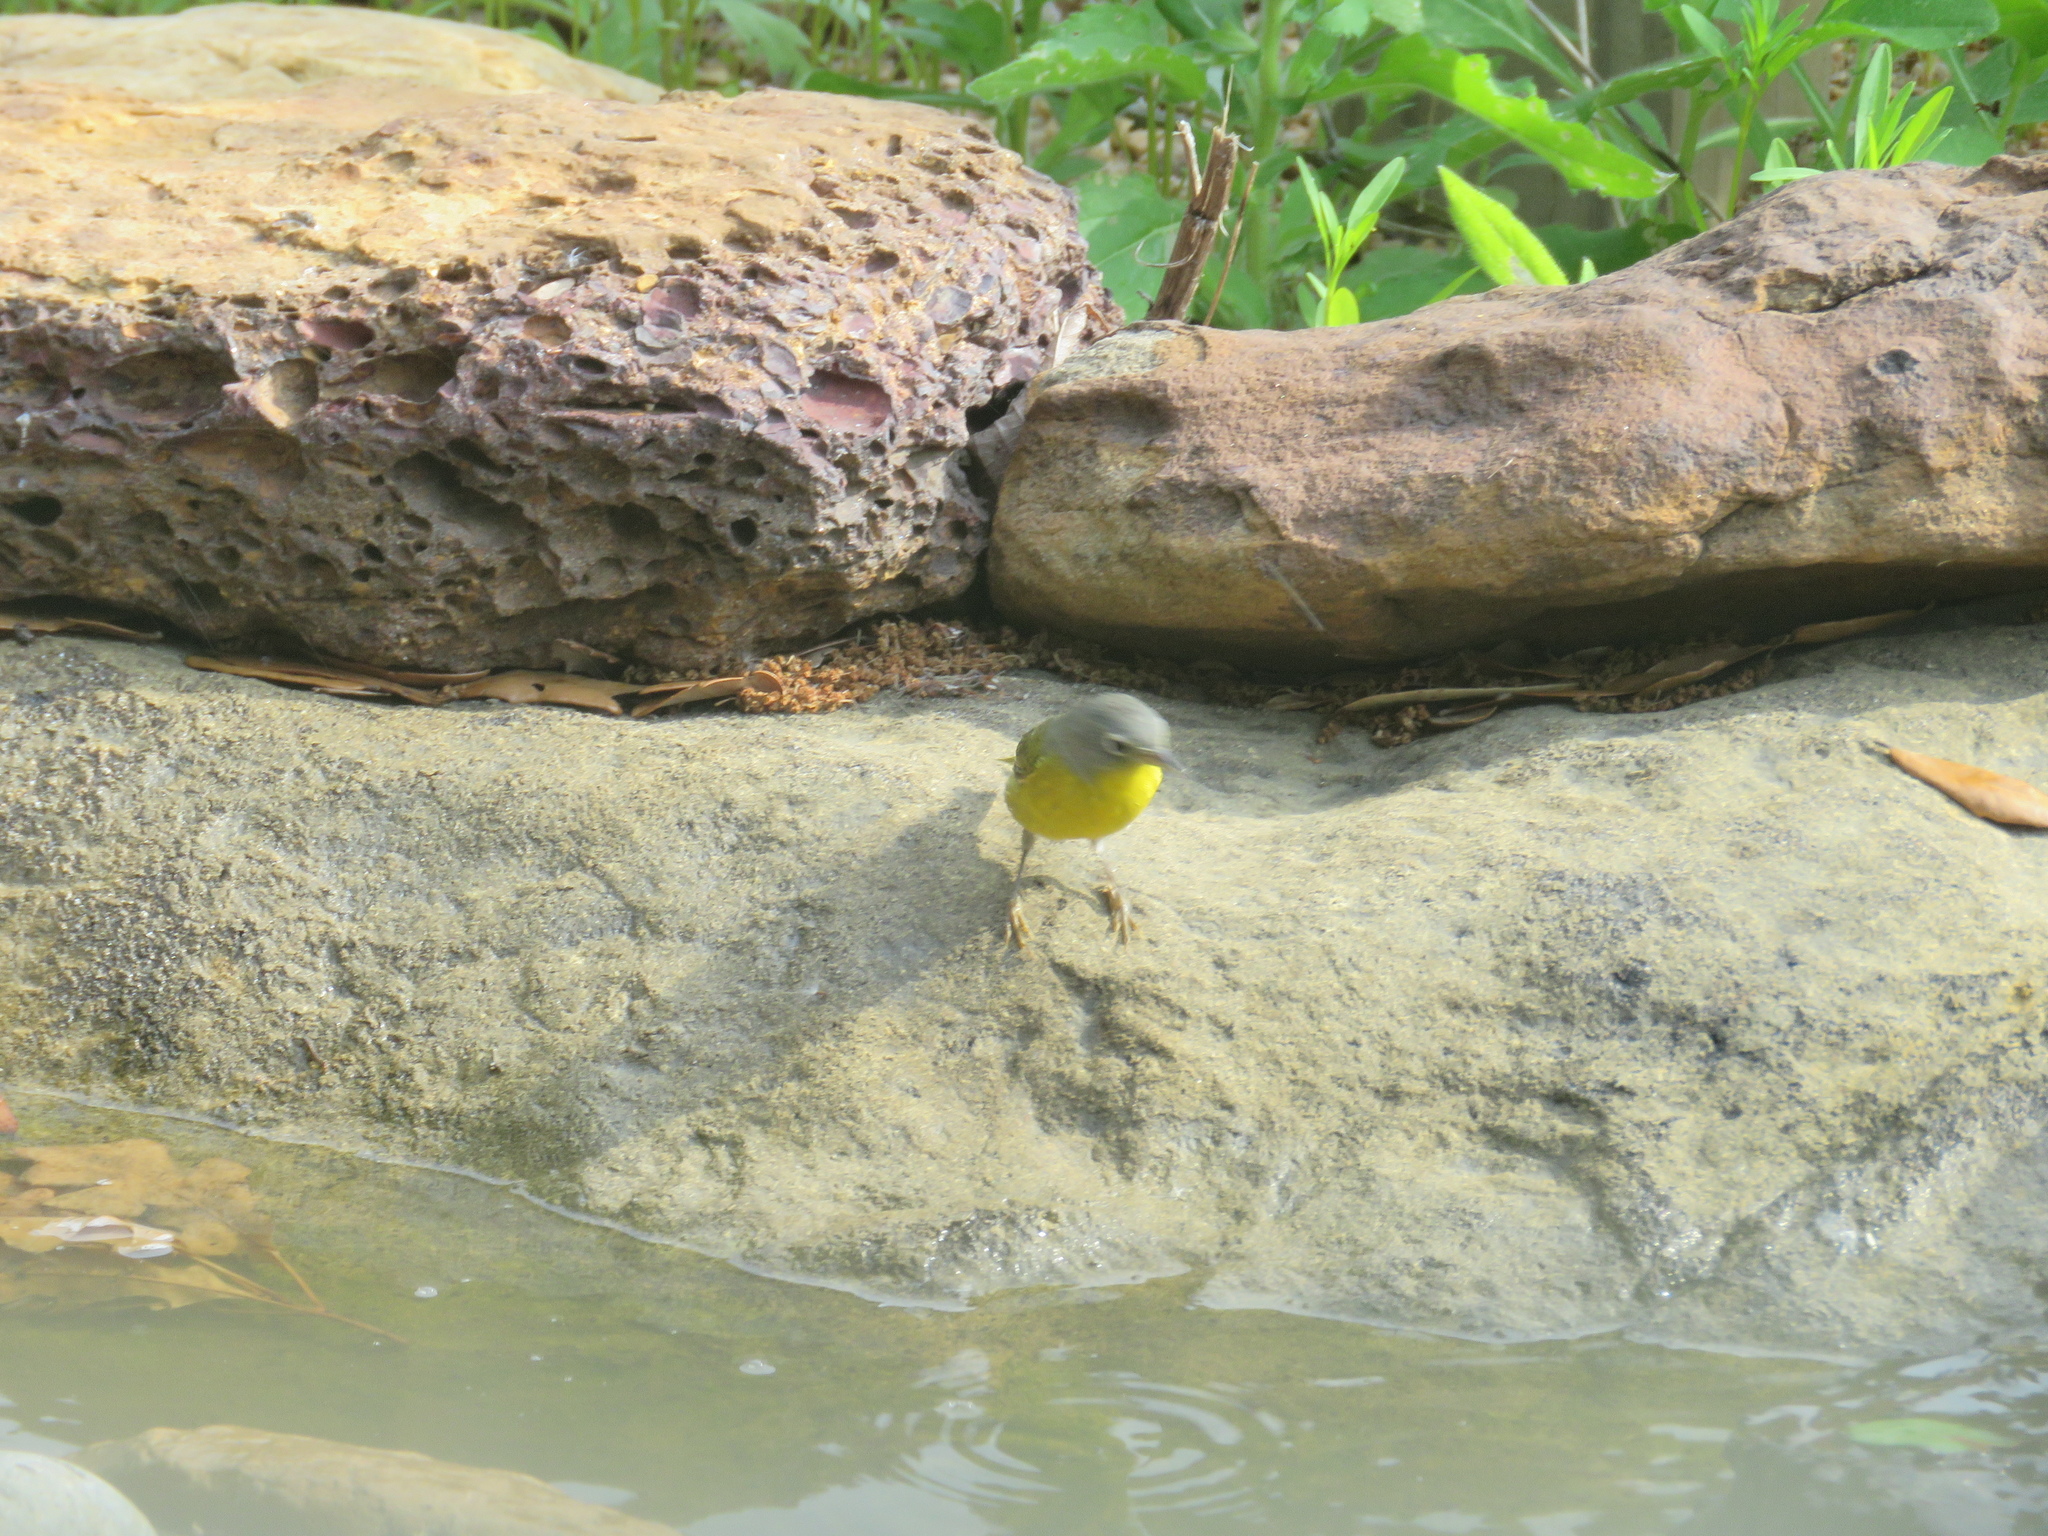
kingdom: Animalia
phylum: Chordata
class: Aves
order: Passeriformes
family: Parulidae
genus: Leiothlypis
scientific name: Leiothlypis ruficapilla
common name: Nashville warbler
